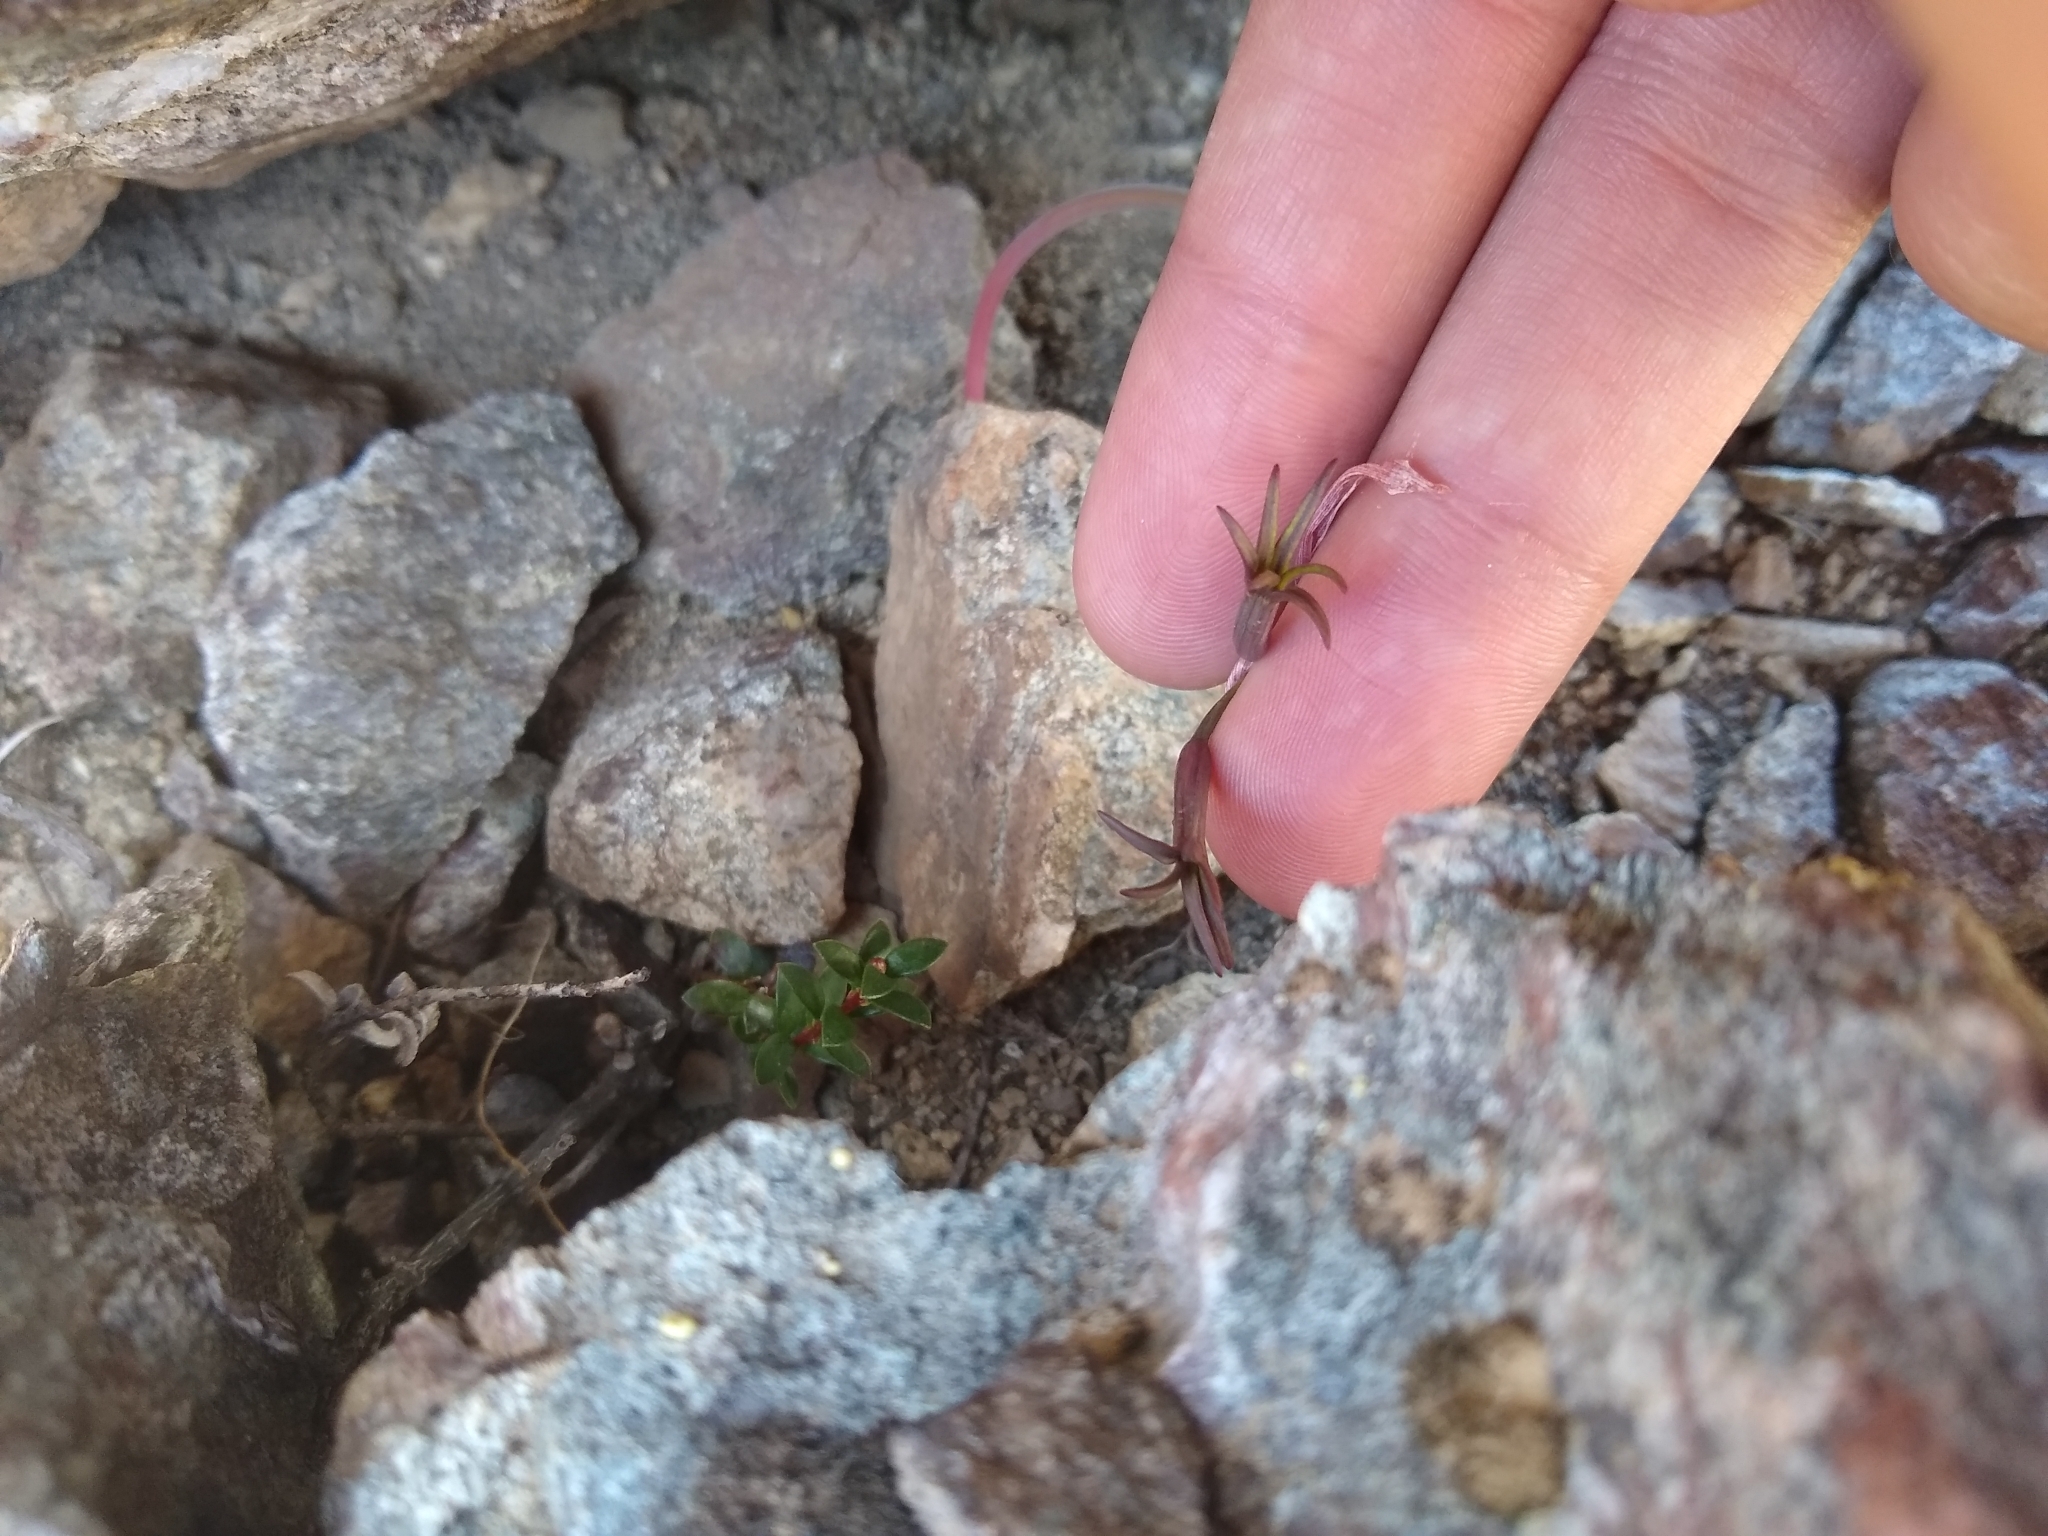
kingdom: Plantae
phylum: Tracheophyta
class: Liliopsida
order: Asparagales
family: Amaryllidaceae
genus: Tristagma
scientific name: Tristagma nivale
